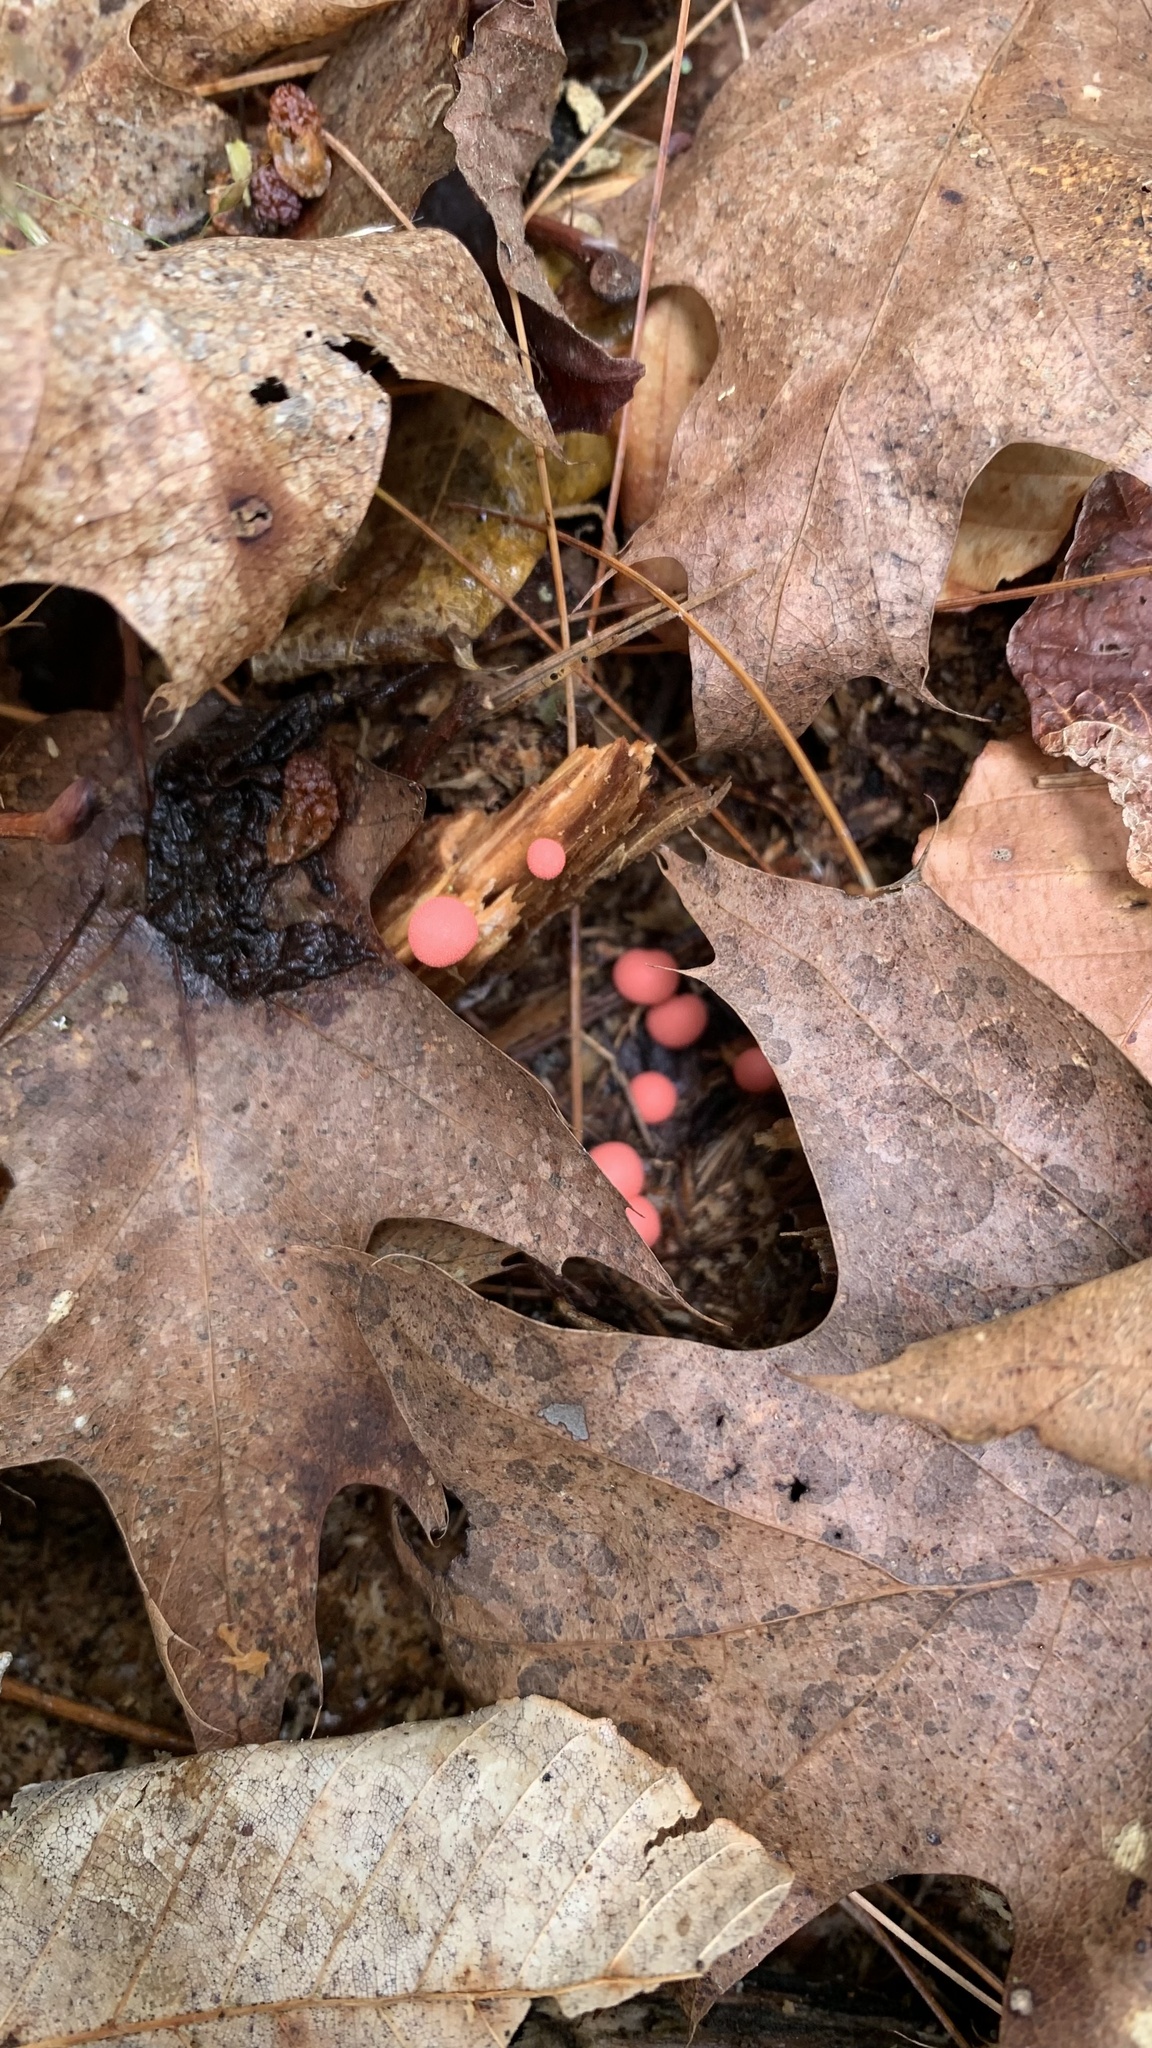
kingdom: Protozoa
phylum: Mycetozoa
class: Myxomycetes
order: Cribrariales
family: Tubiferaceae
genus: Lycogala
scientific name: Lycogala epidendrum
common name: Wolf's milk
